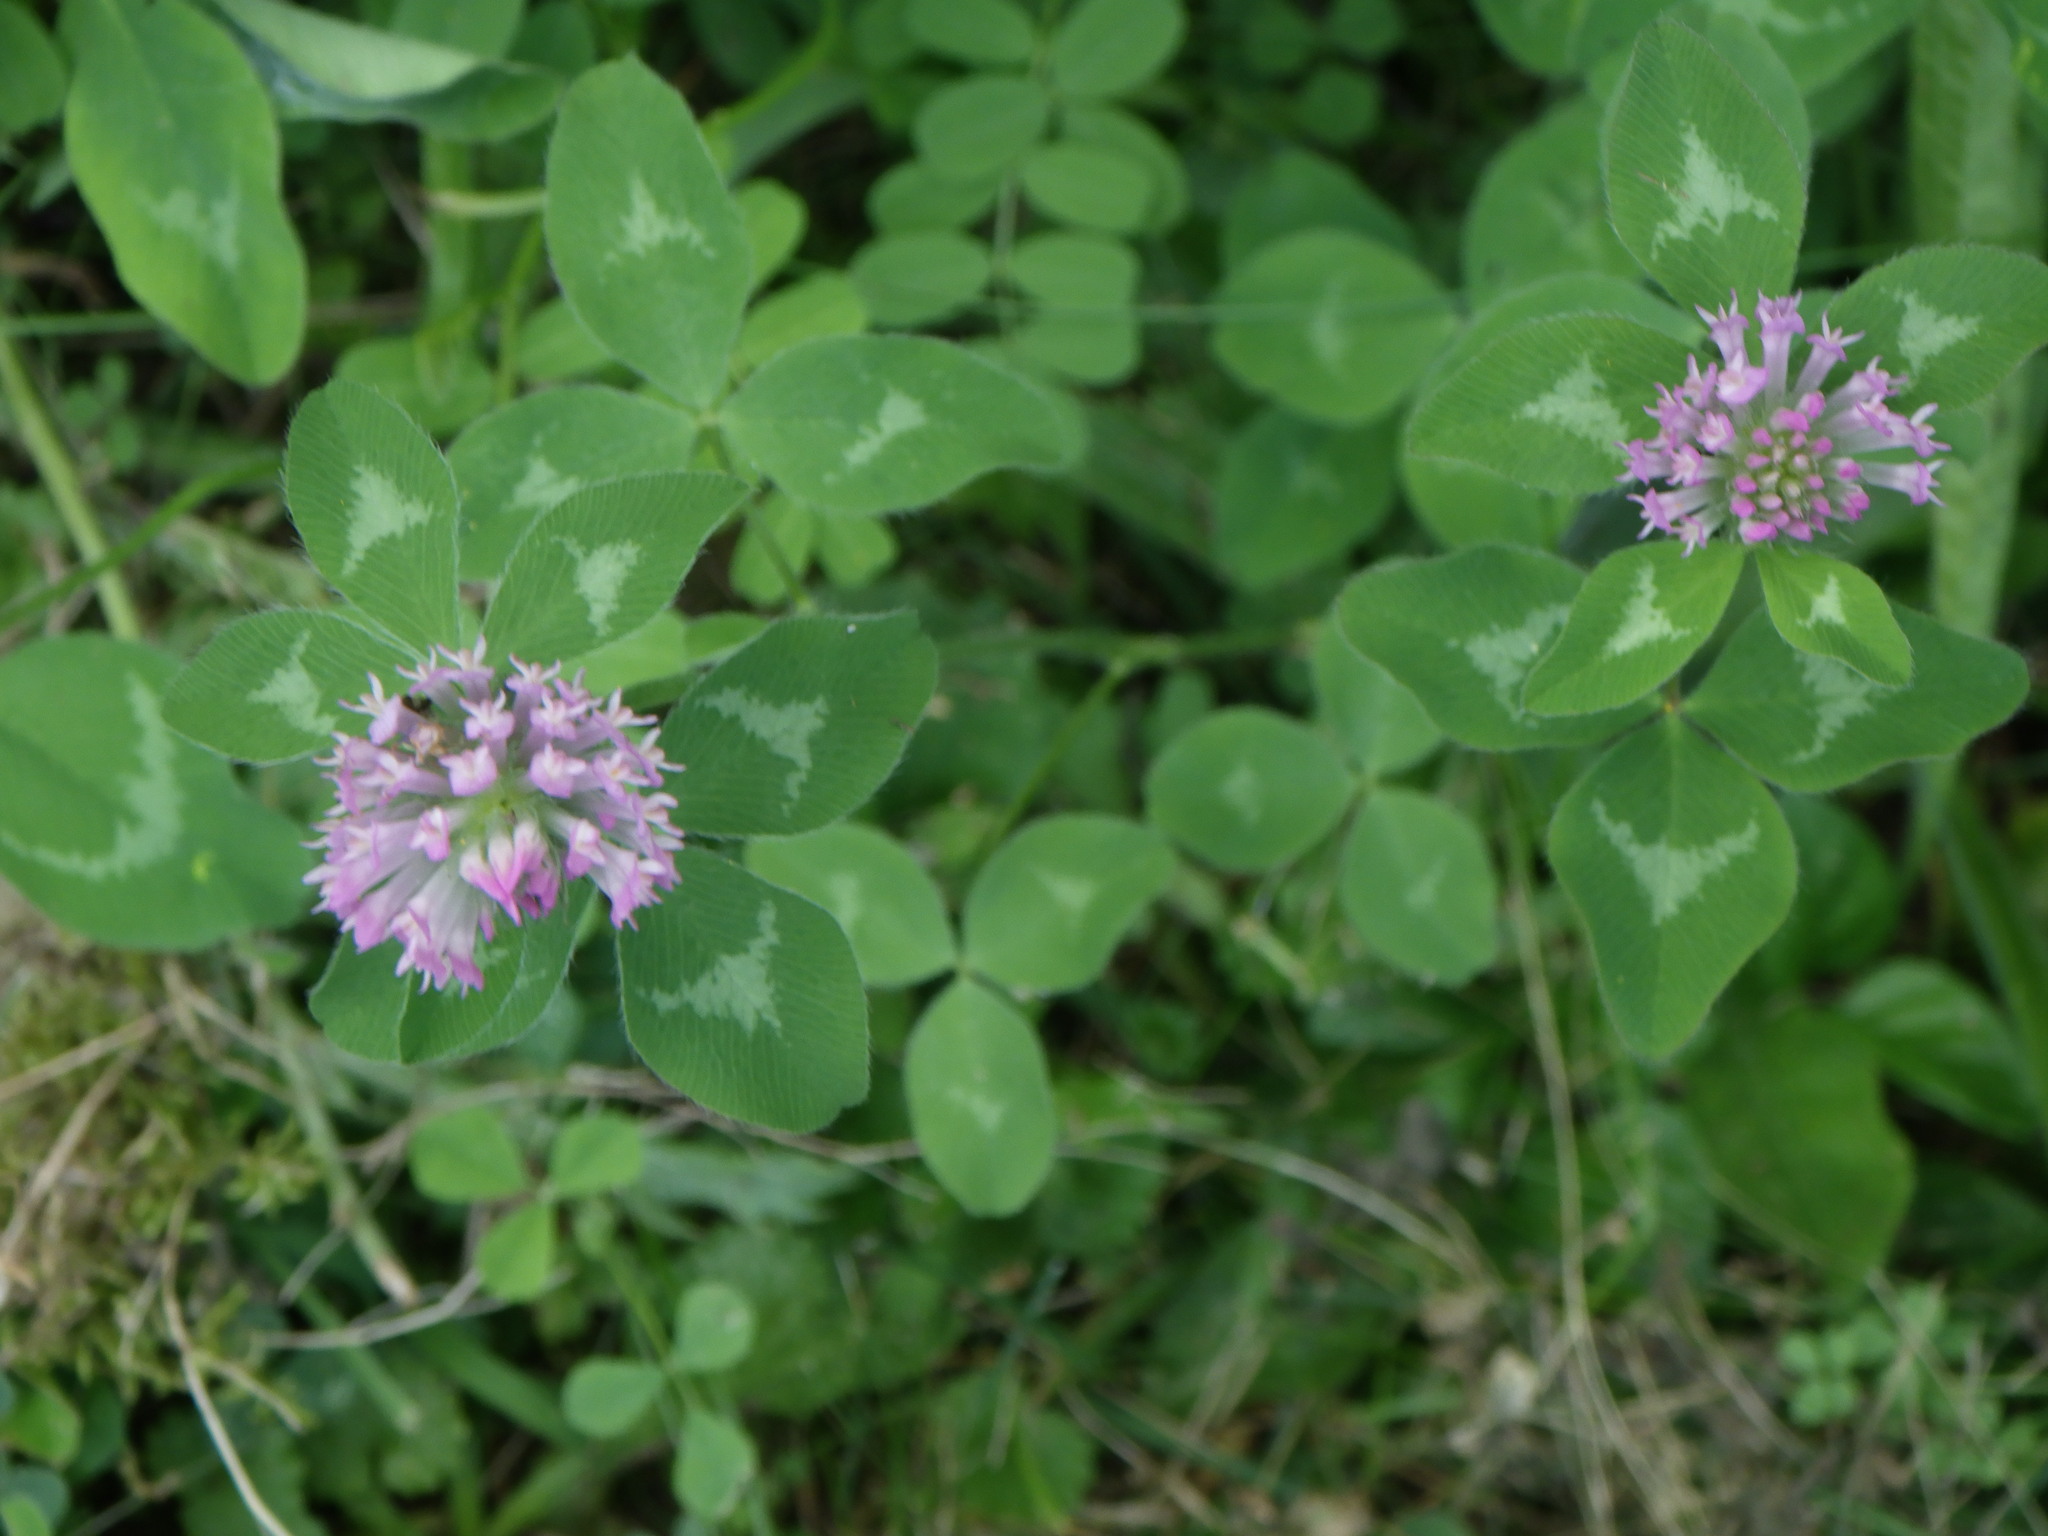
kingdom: Plantae
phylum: Tracheophyta
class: Magnoliopsida
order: Fabales
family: Fabaceae
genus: Trifolium
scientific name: Trifolium pratense
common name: Red clover
